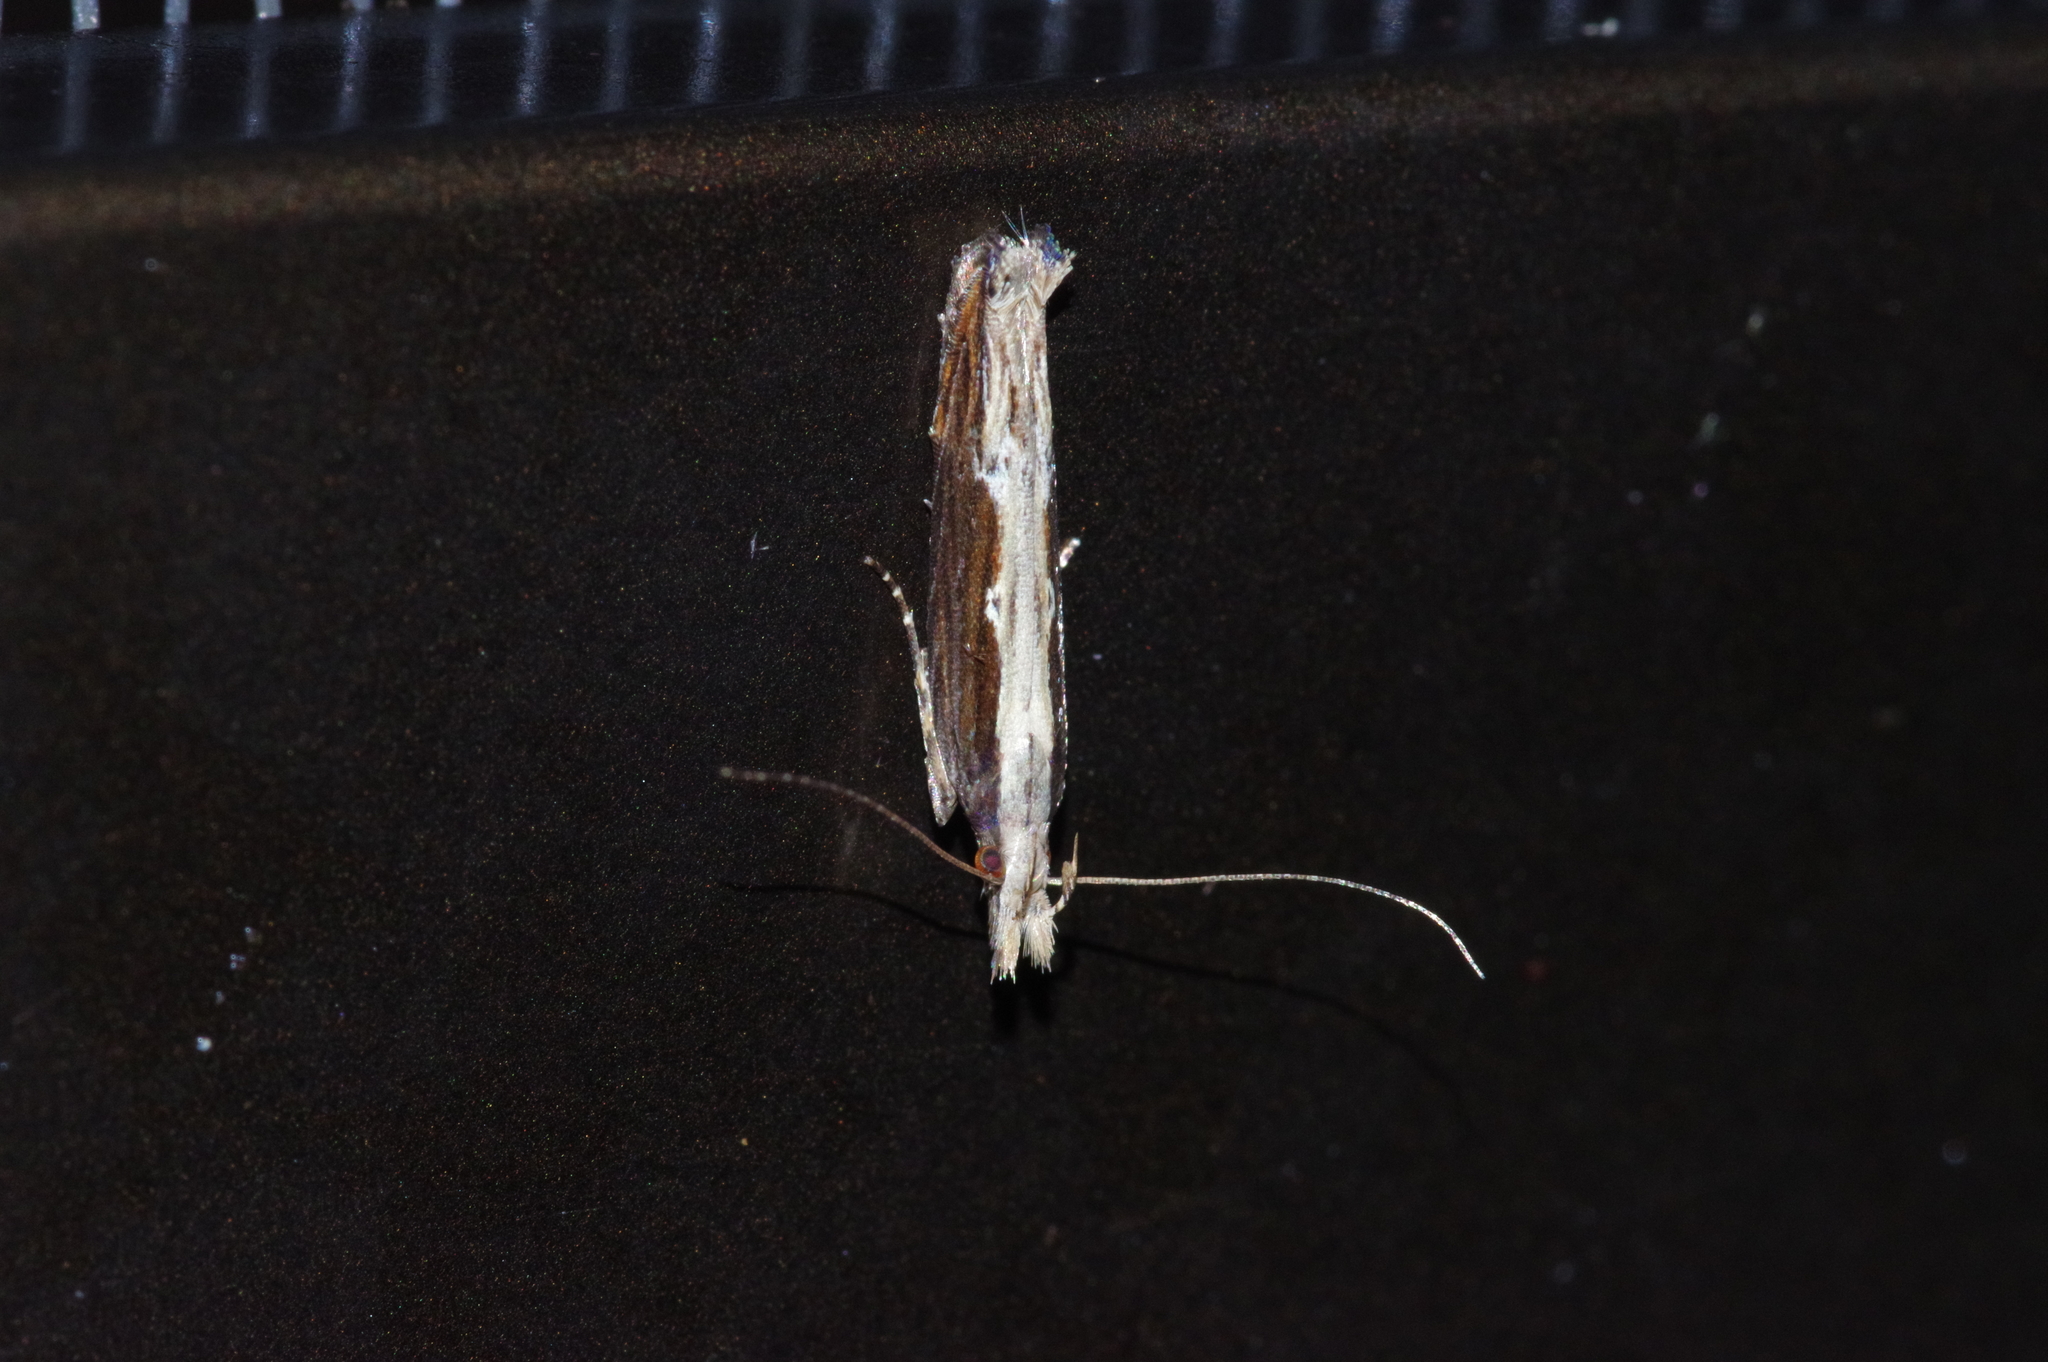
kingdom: Animalia
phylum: Arthropoda
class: Insecta
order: Lepidoptera
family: Gelechiidae
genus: Hypatima
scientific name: Hypatima spathota
